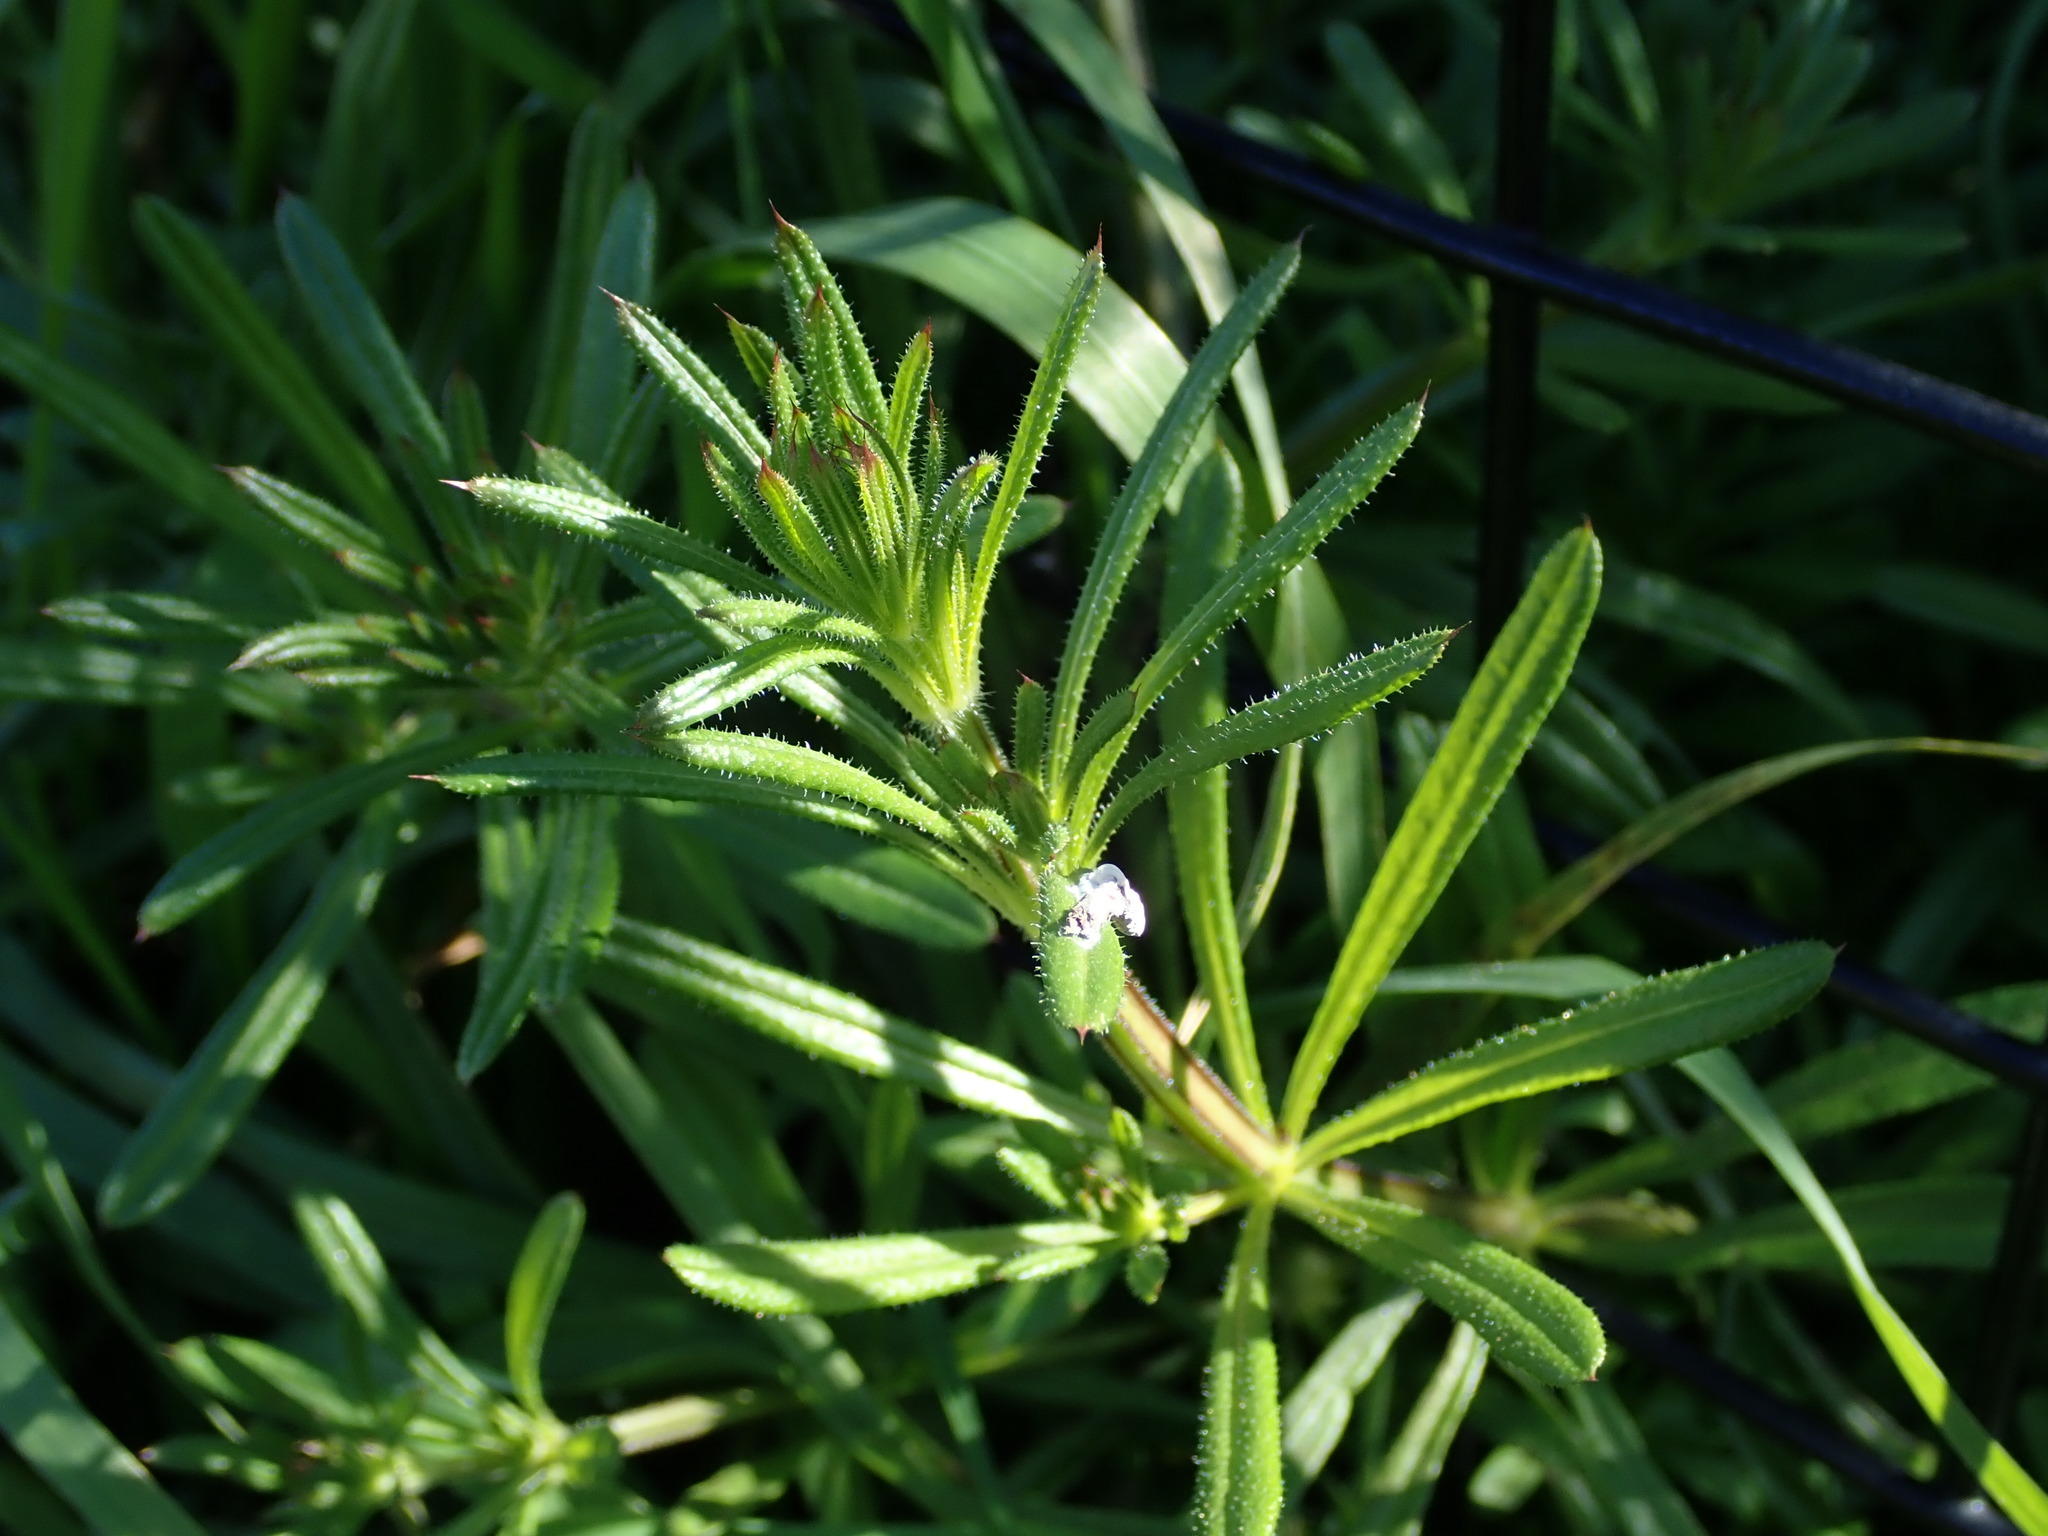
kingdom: Plantae
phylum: Tracheophyta
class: Magnoliopsida
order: Gentianales
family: Rubiaceae
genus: Galium
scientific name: Galium aparine
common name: Cleavers
